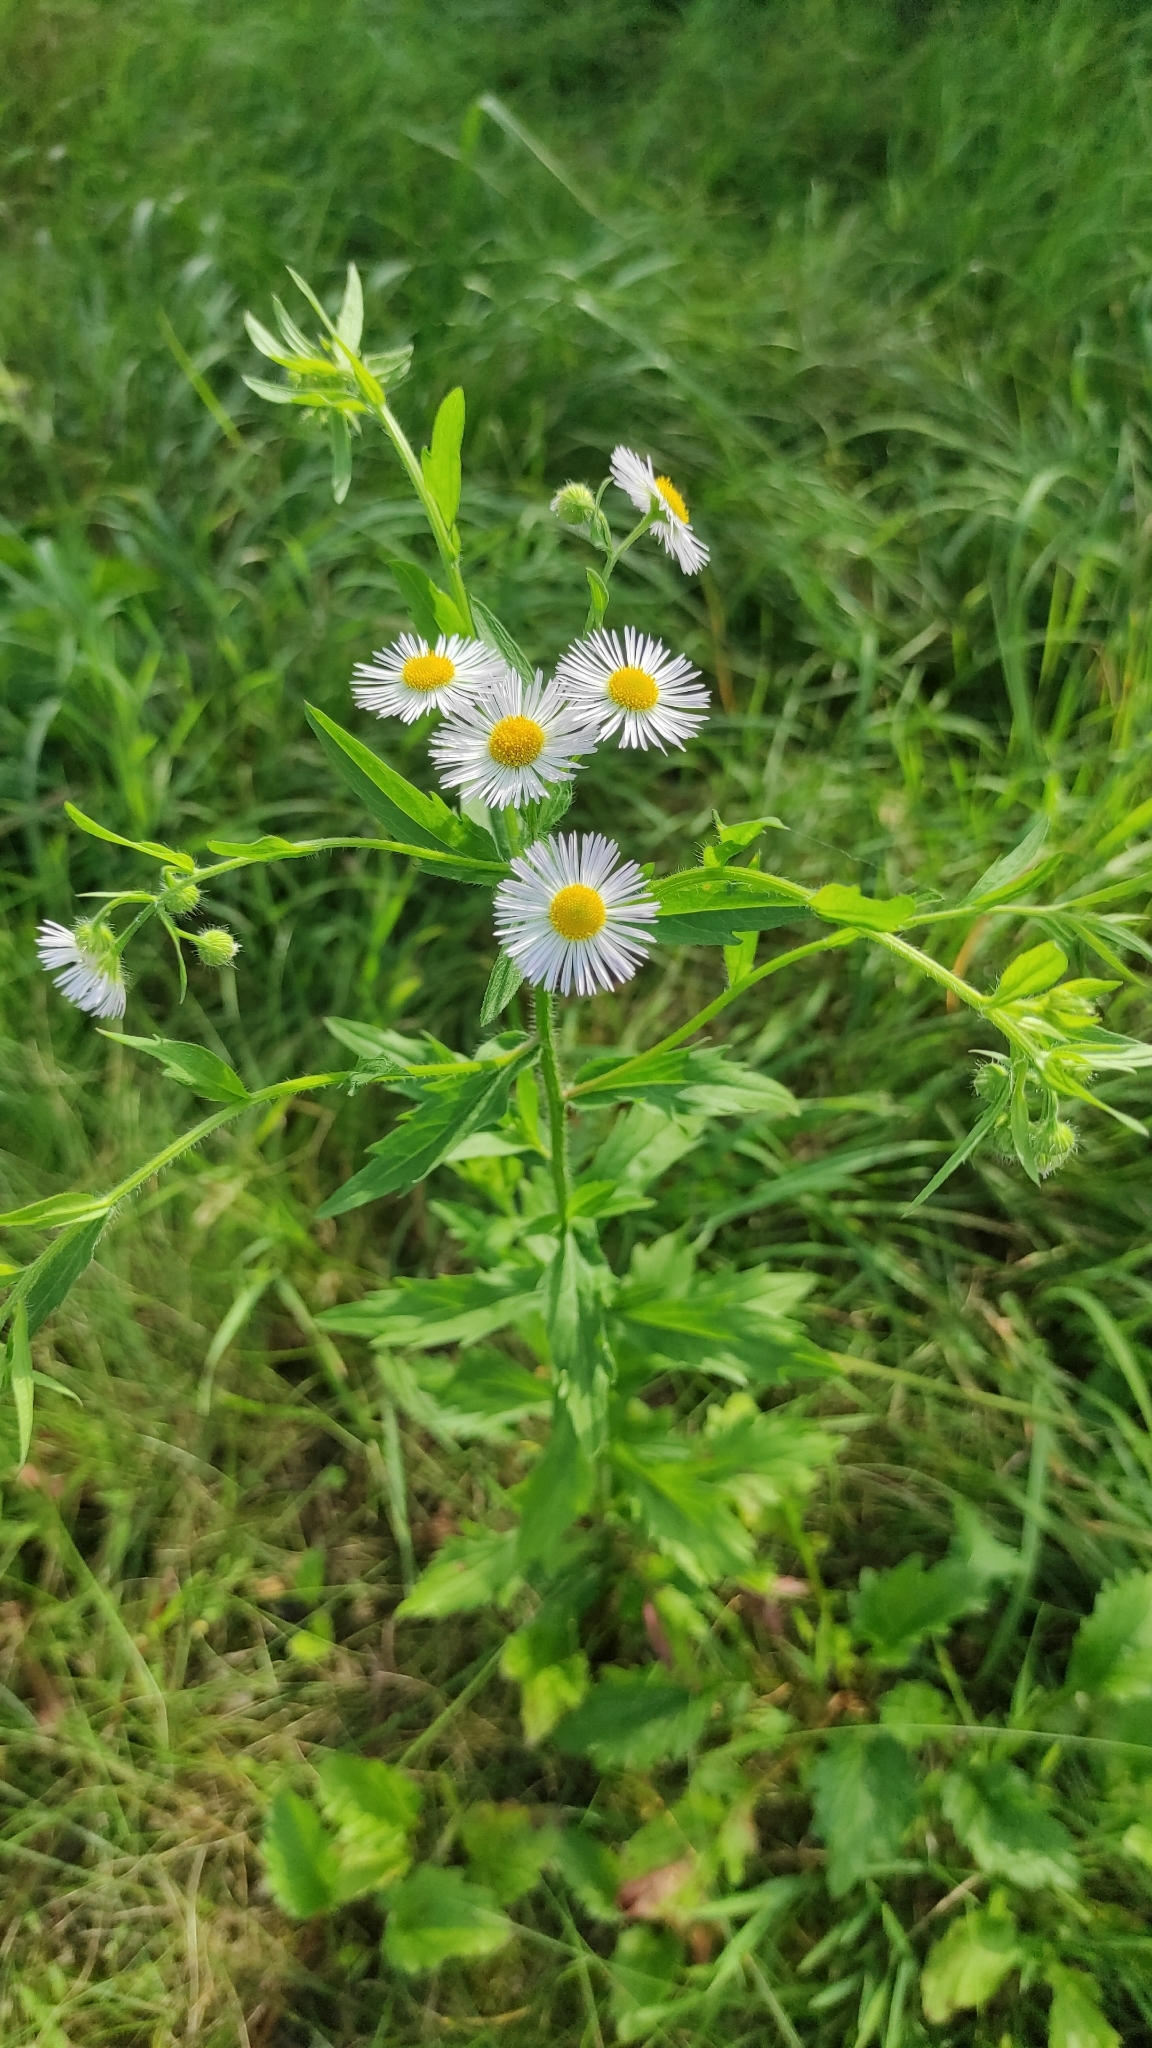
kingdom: Plantae
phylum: Tracheophyta
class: Magnoliopsida
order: Asterales
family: Asteraceae
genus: Erigeron
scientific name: Erigeron annuus
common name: Tall fleabane
